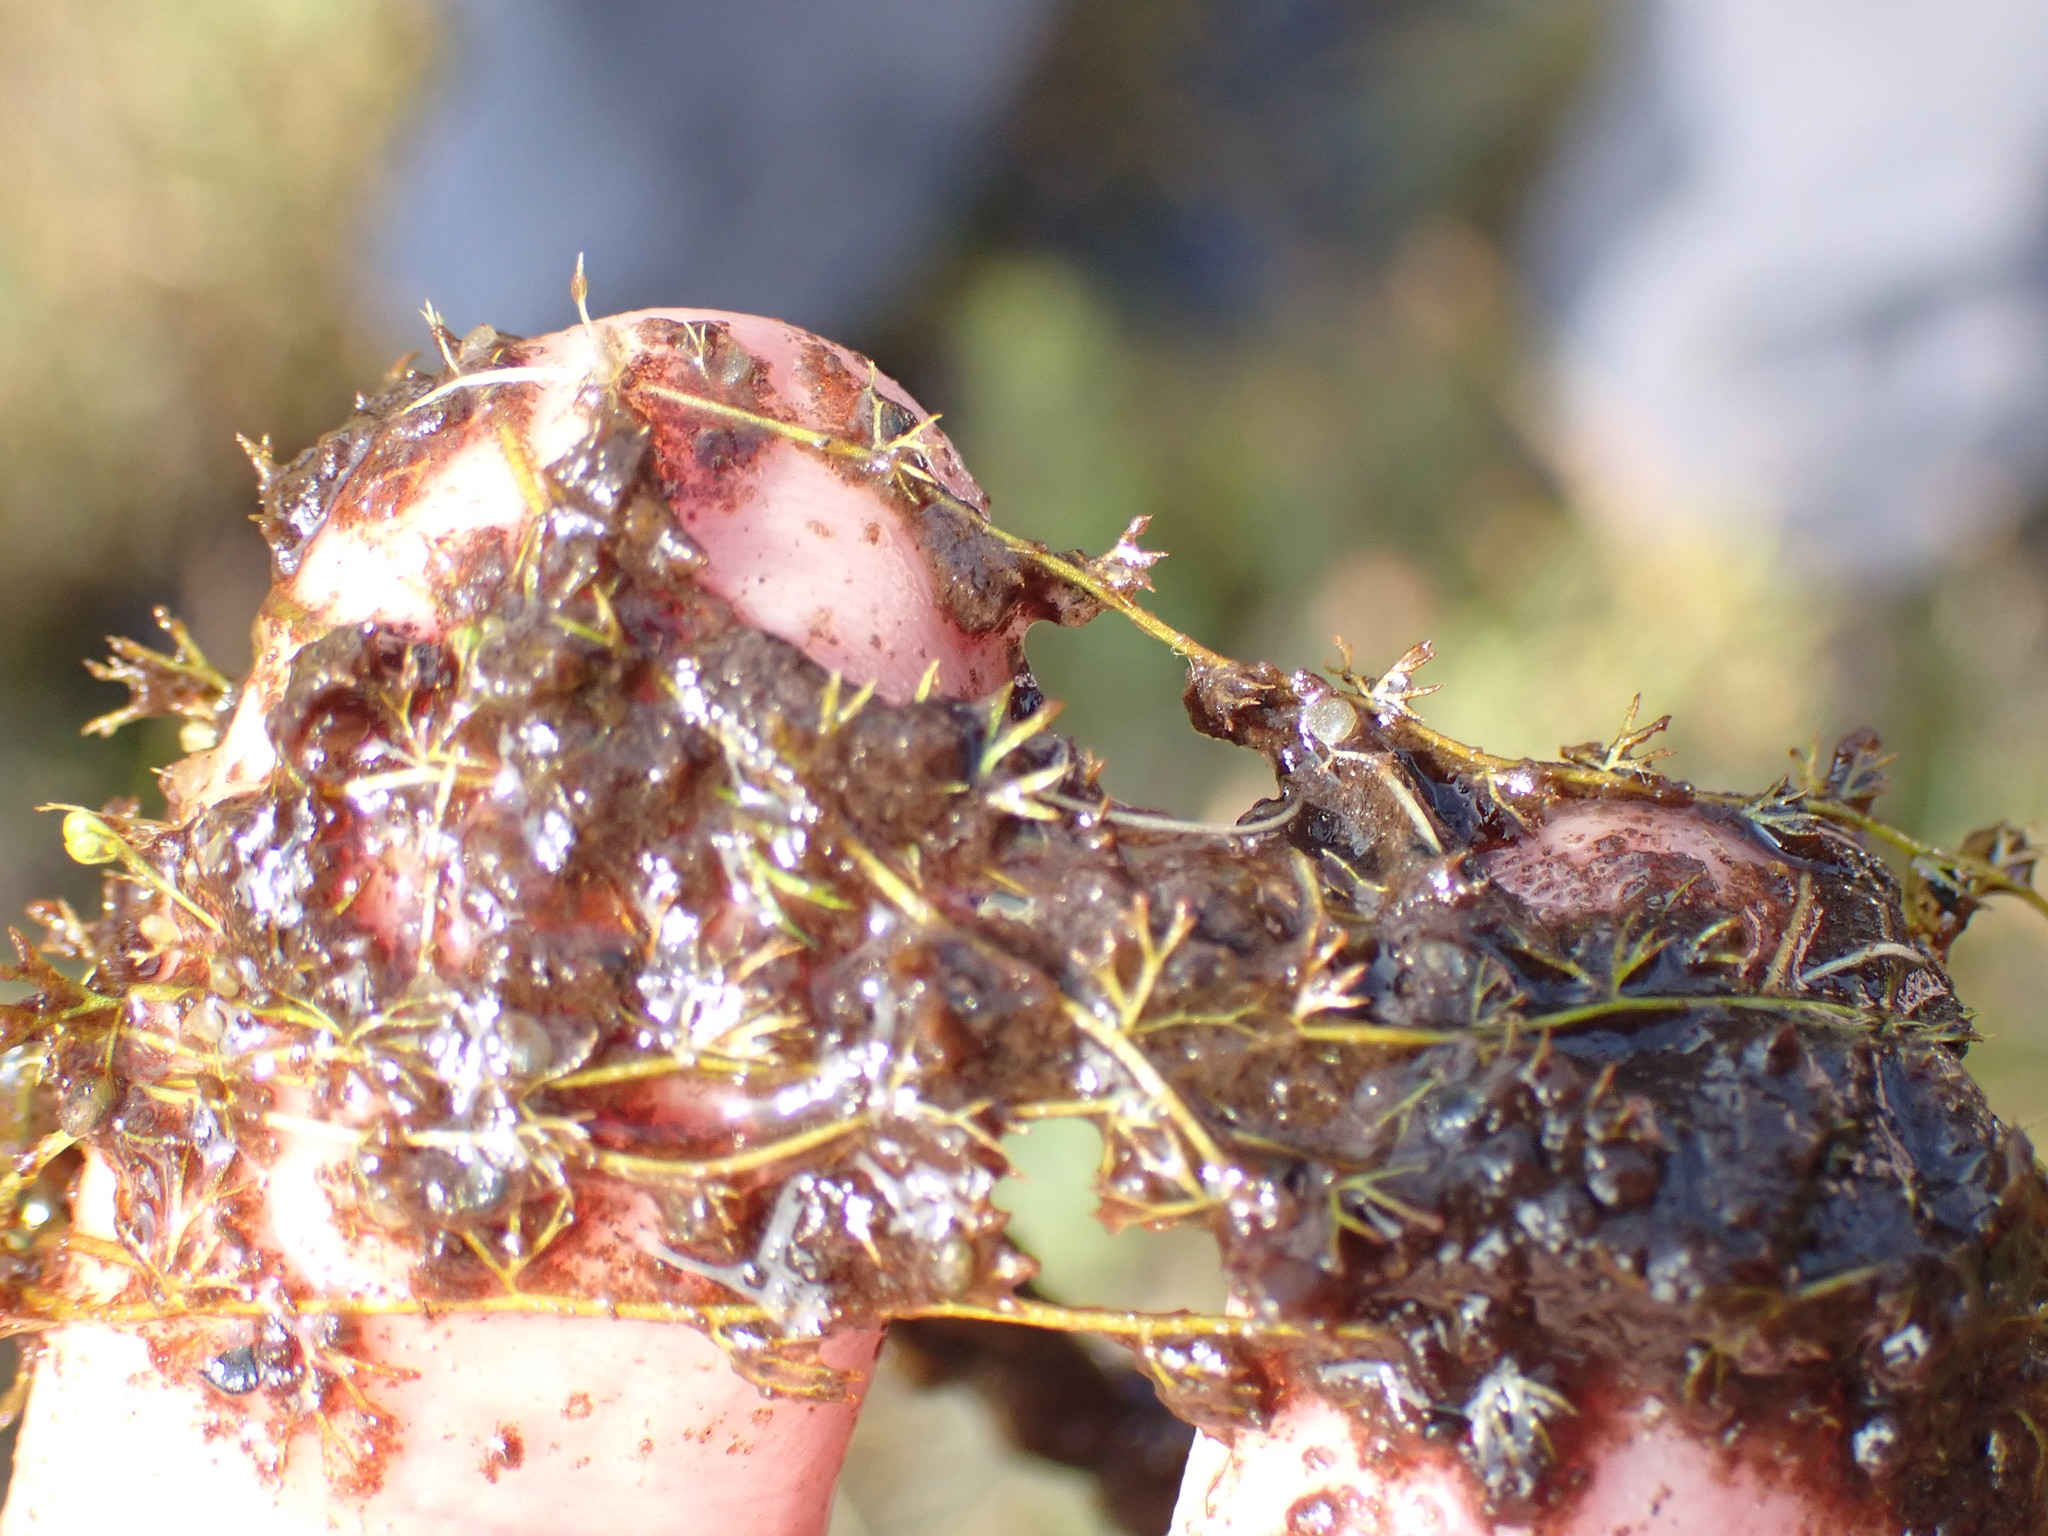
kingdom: Plantae
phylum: Tracheophyta
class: Magnoliopsida
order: Lamiales
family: Lentibulariaceae
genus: Utricularia
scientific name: Utricularia minor
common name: Lesser bladderwort
